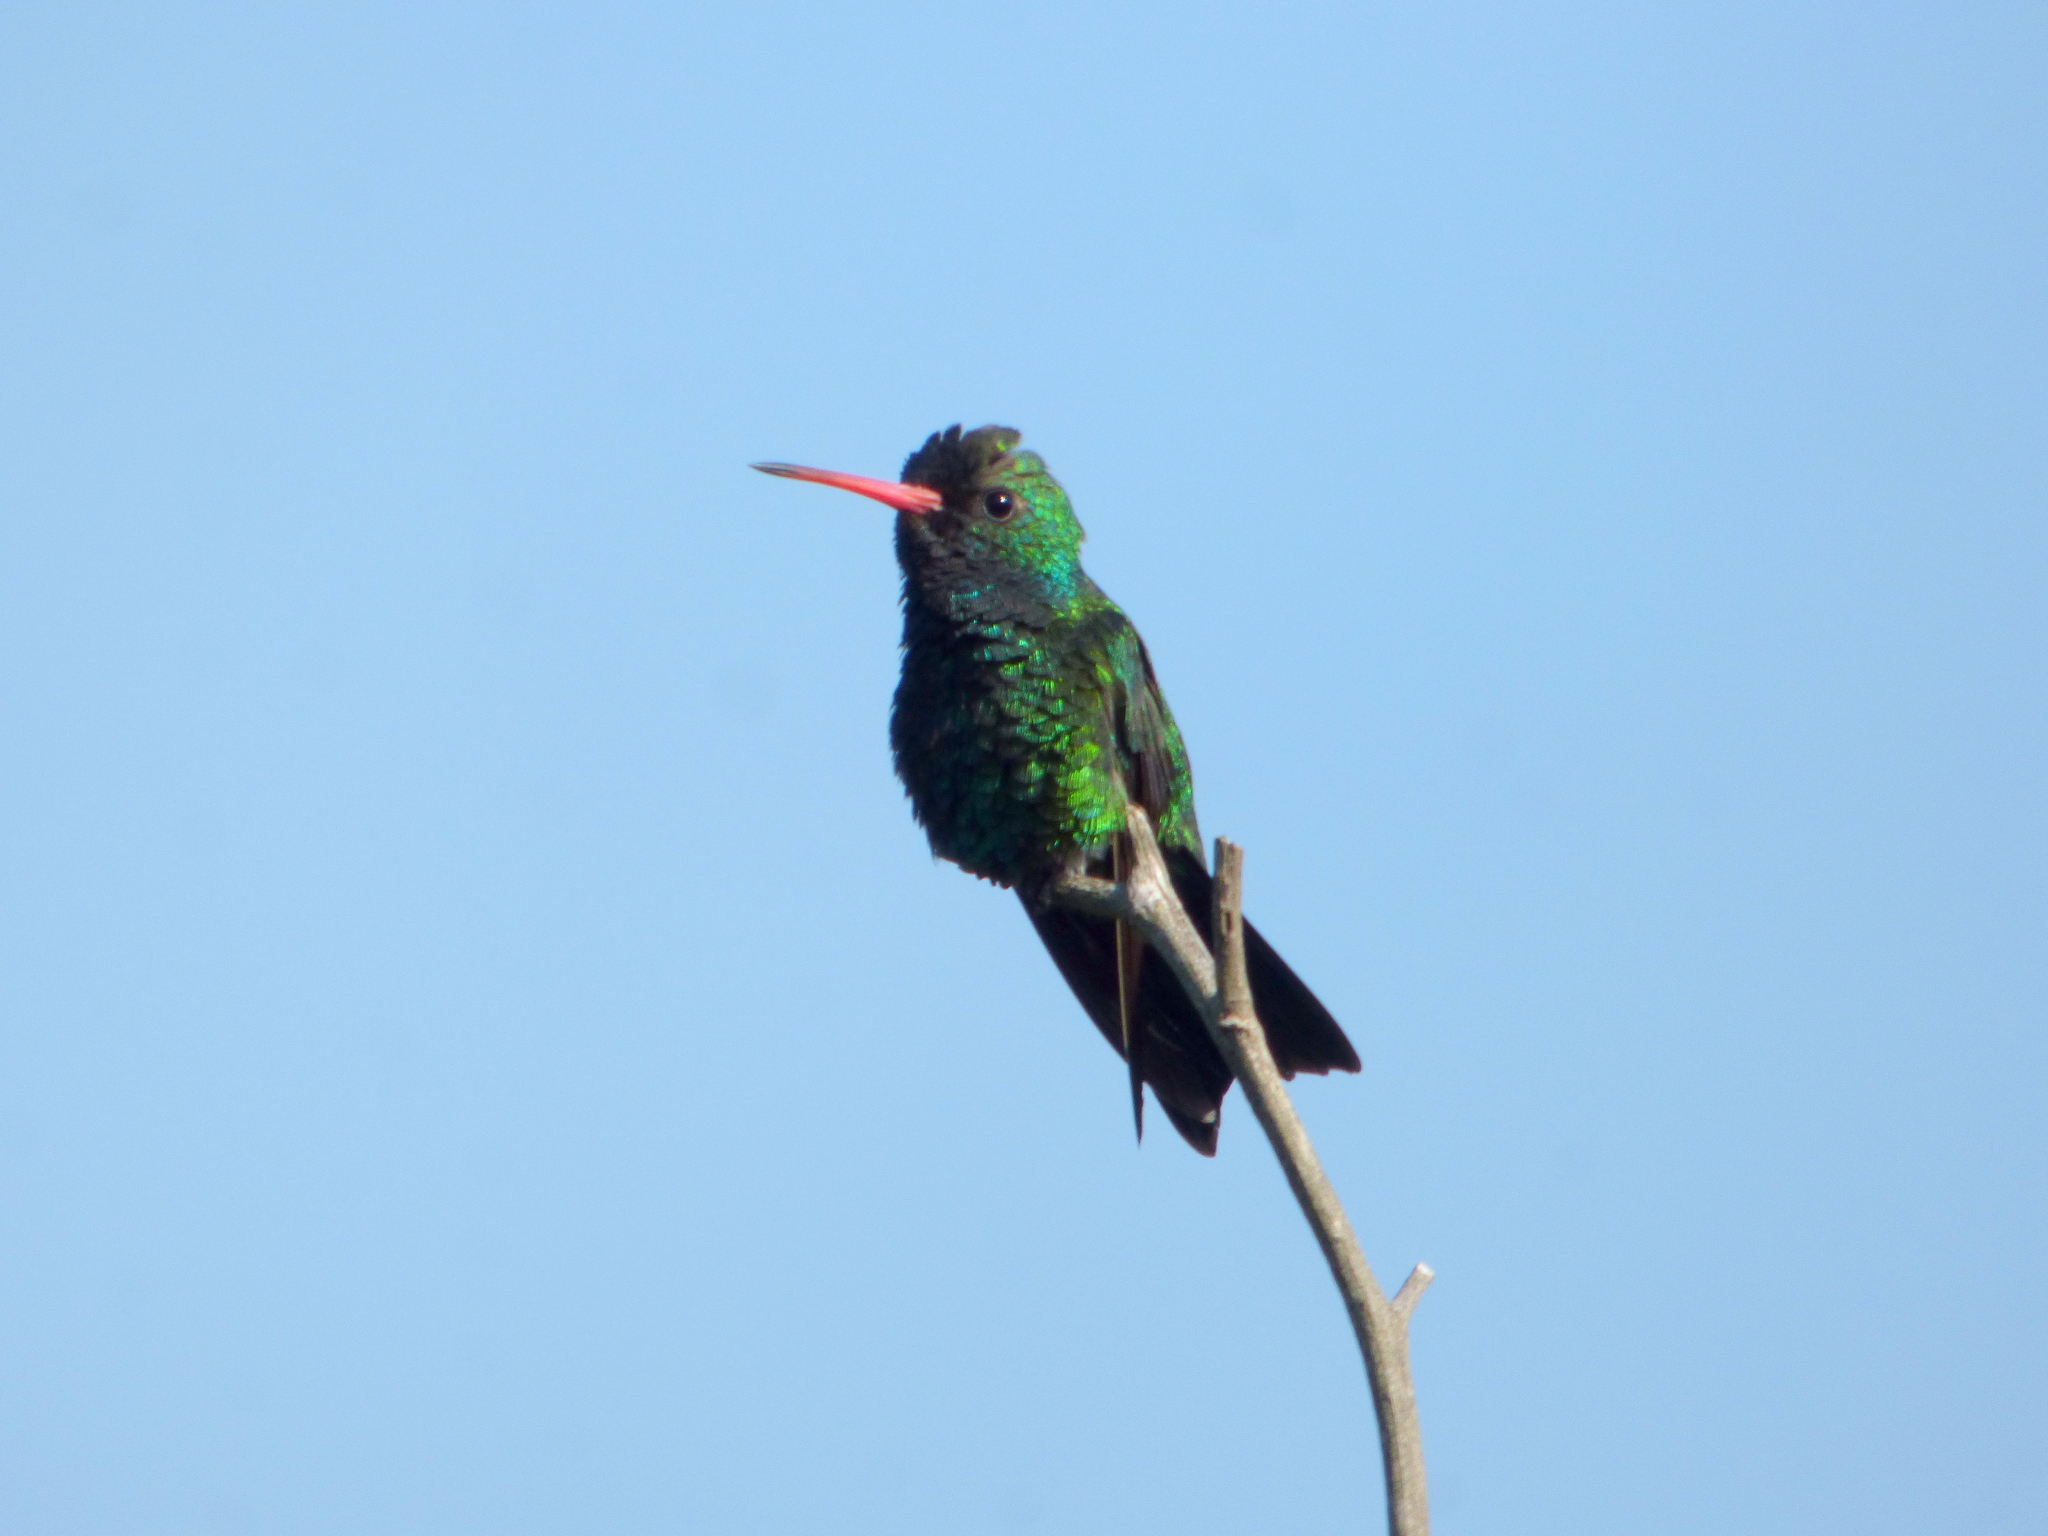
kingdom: Animalia
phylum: Chordata
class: Aves
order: Apodiformes
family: Trochilidae
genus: Chlorostilbon
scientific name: Chlorostilbon lucidus
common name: Glittering-bellied emerald
